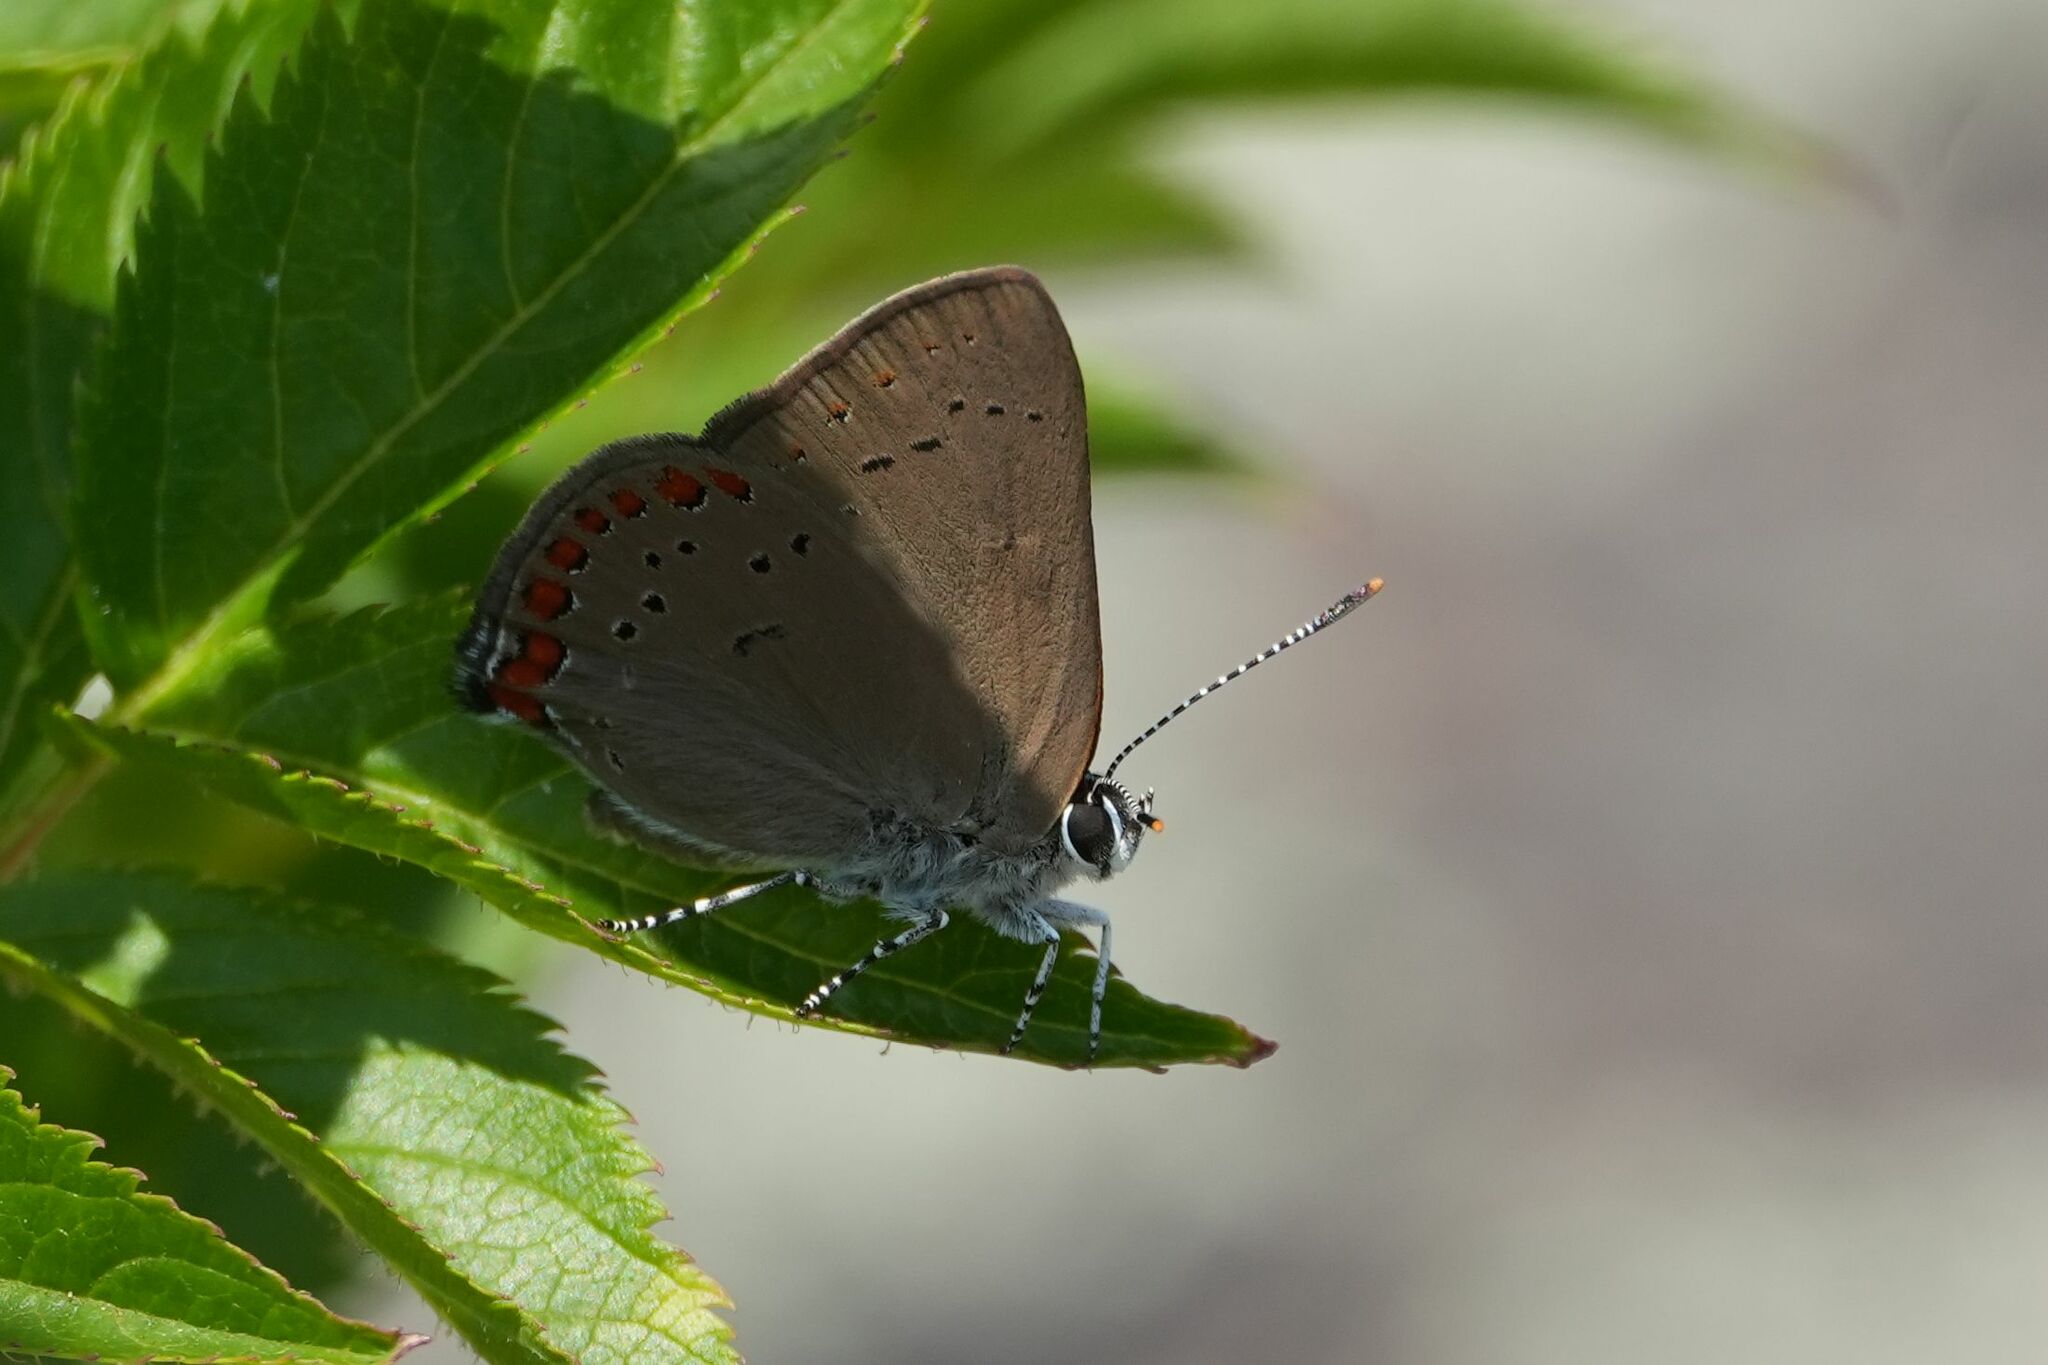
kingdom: Animalia
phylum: Arthropoda
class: Insecta
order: Lepidoptera
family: Lycaenidae
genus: Harkenclenus
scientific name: Harkenclenus titus
